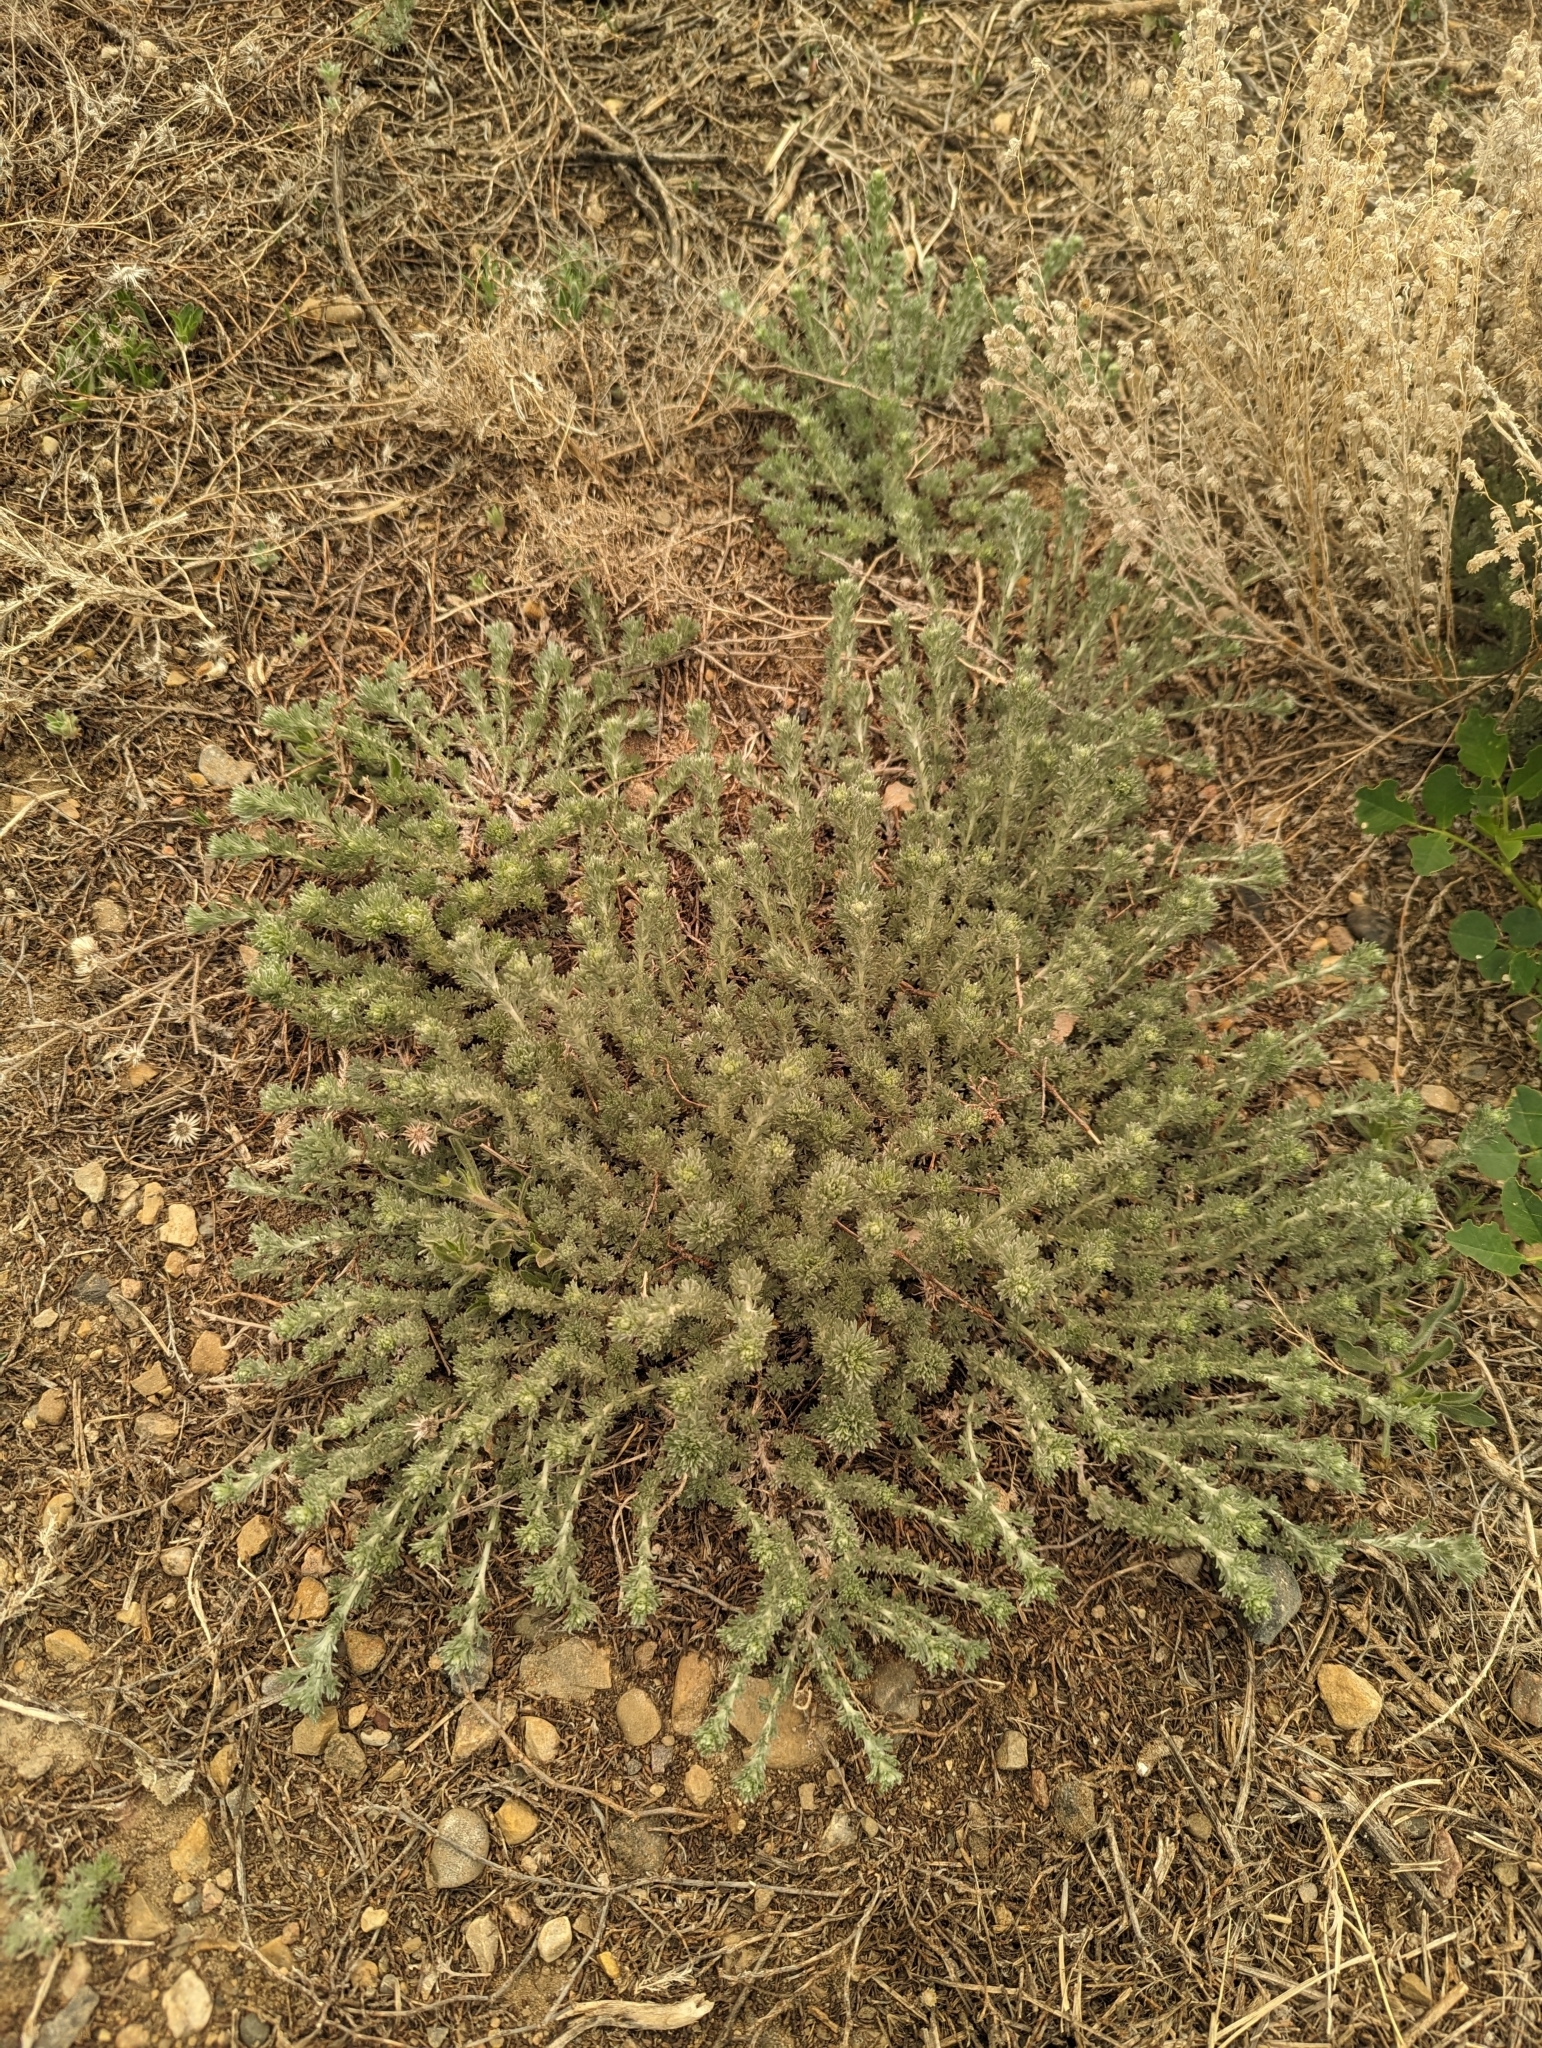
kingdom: Plantae
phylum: Tracheophyta
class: Magnoliopsida
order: Asterales
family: Asteraceae
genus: Artemisia
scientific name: Artemisia frigida
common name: Prairie sagewort
